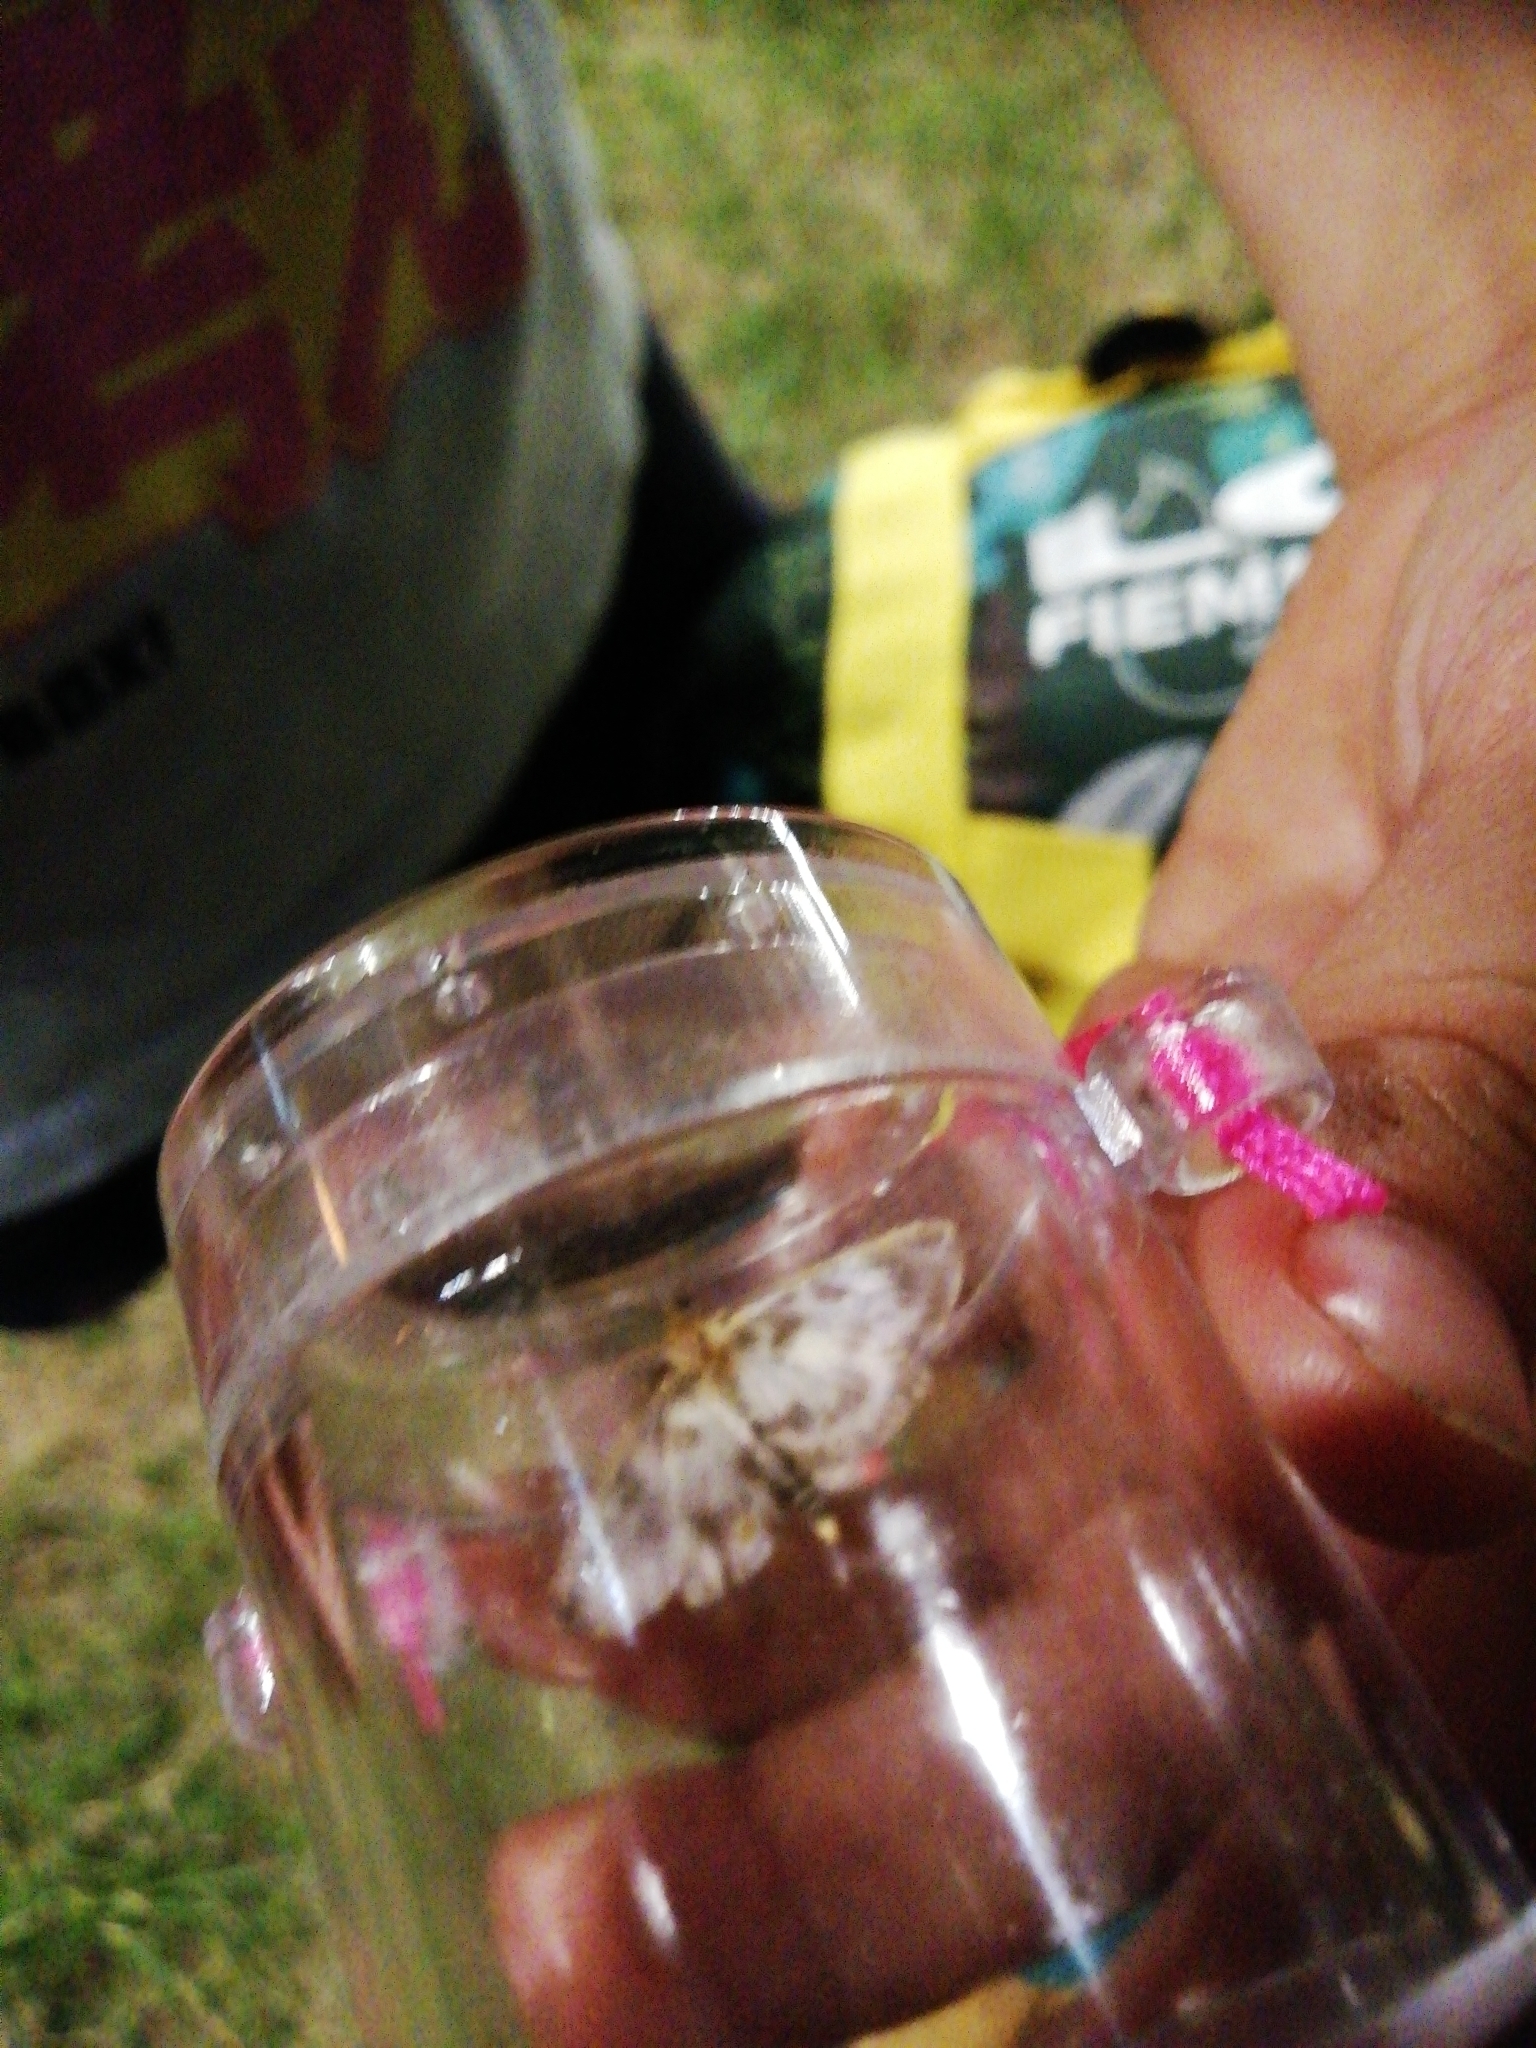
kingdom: Animalia
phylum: Arthropoda
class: Insecta
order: Lepidoptera
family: Crambidae
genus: Anania
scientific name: Anania hortulata
